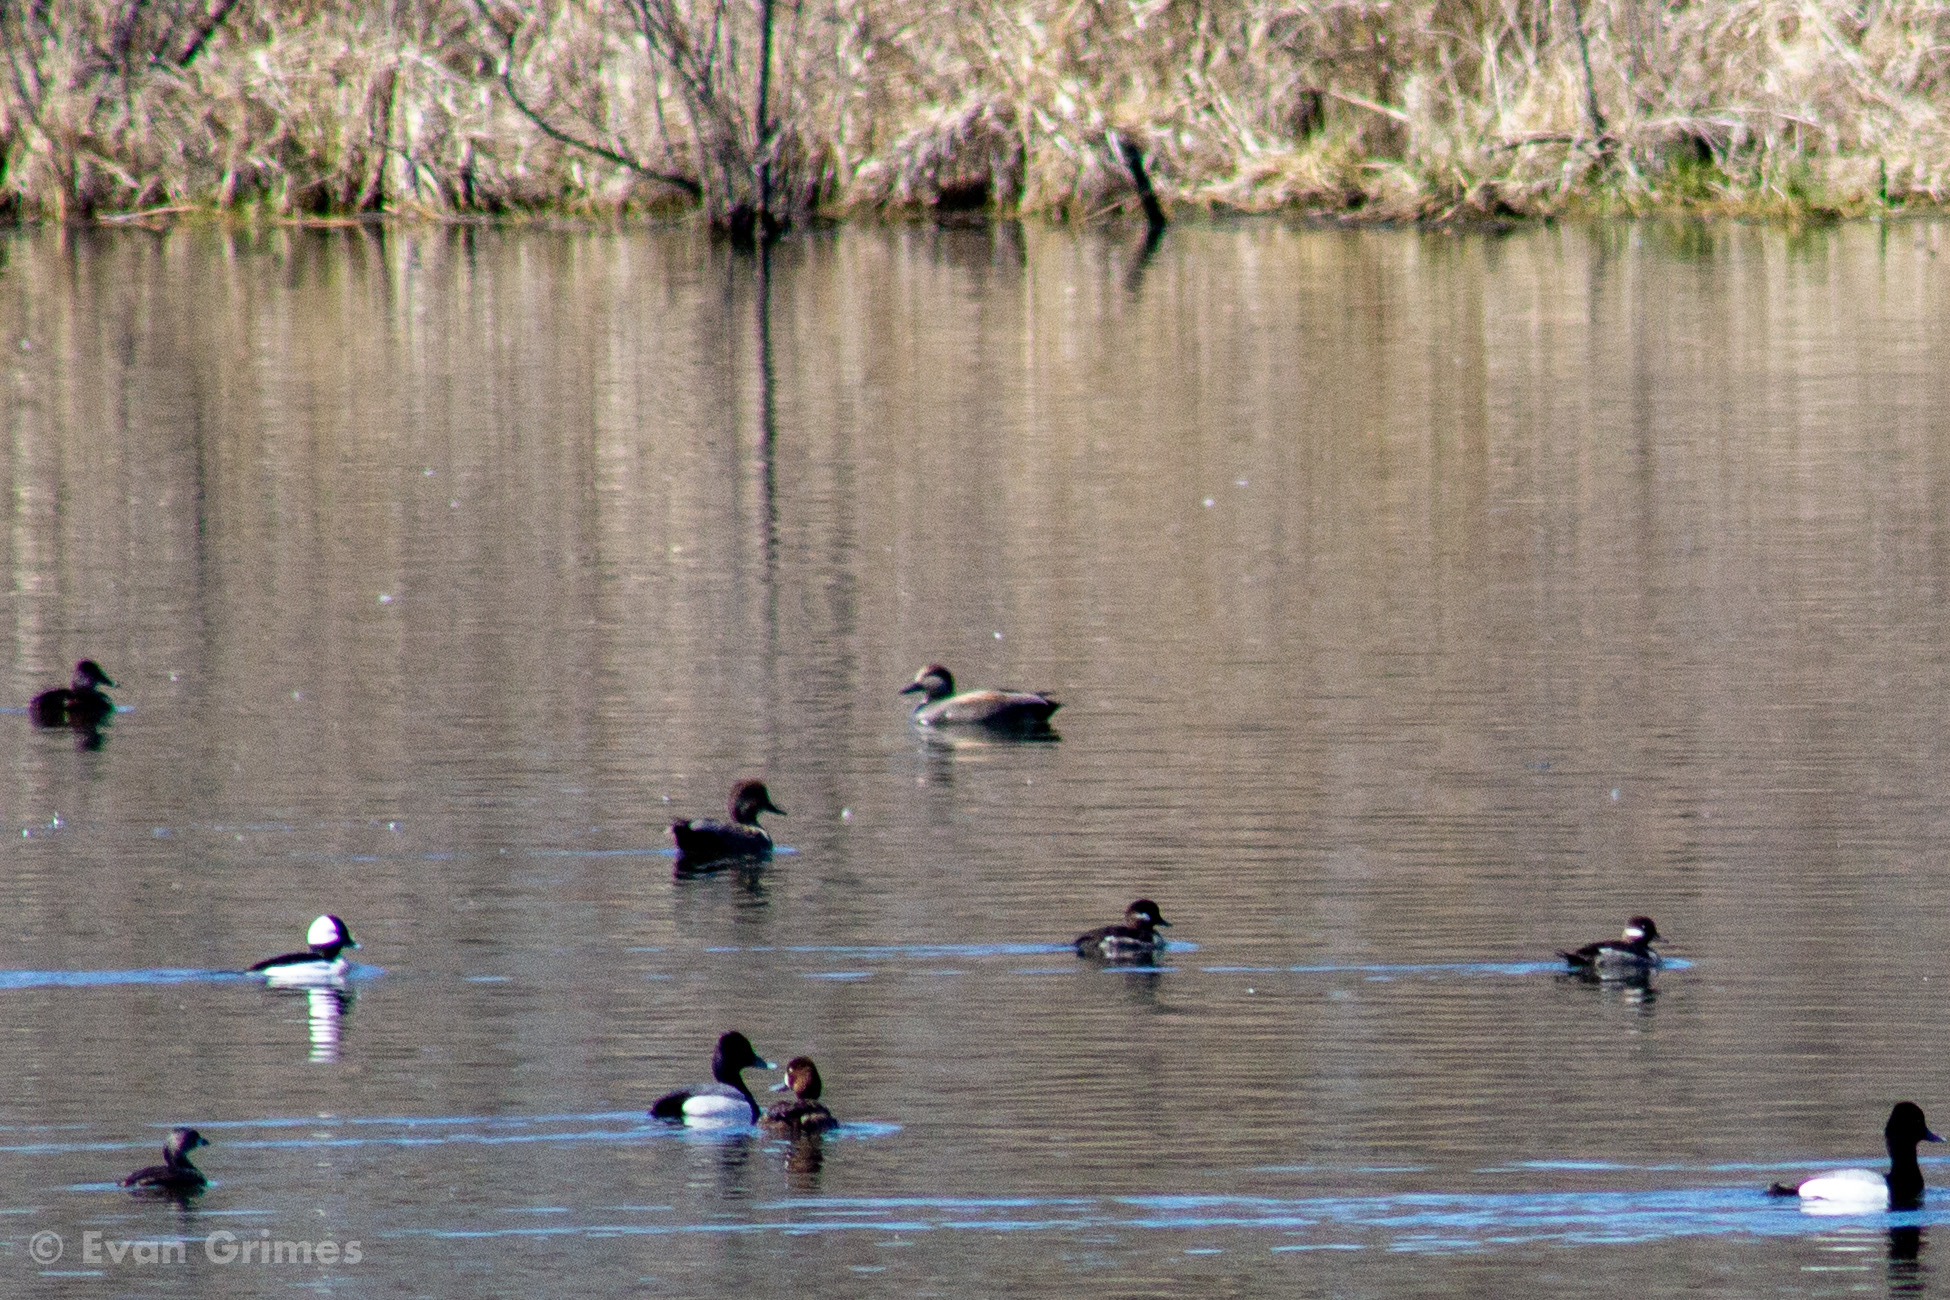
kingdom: Animalia
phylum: Chordata
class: Aves
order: Anseriformes
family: Anatidae
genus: Mareca
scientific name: Mareca strepera
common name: Gadwall
